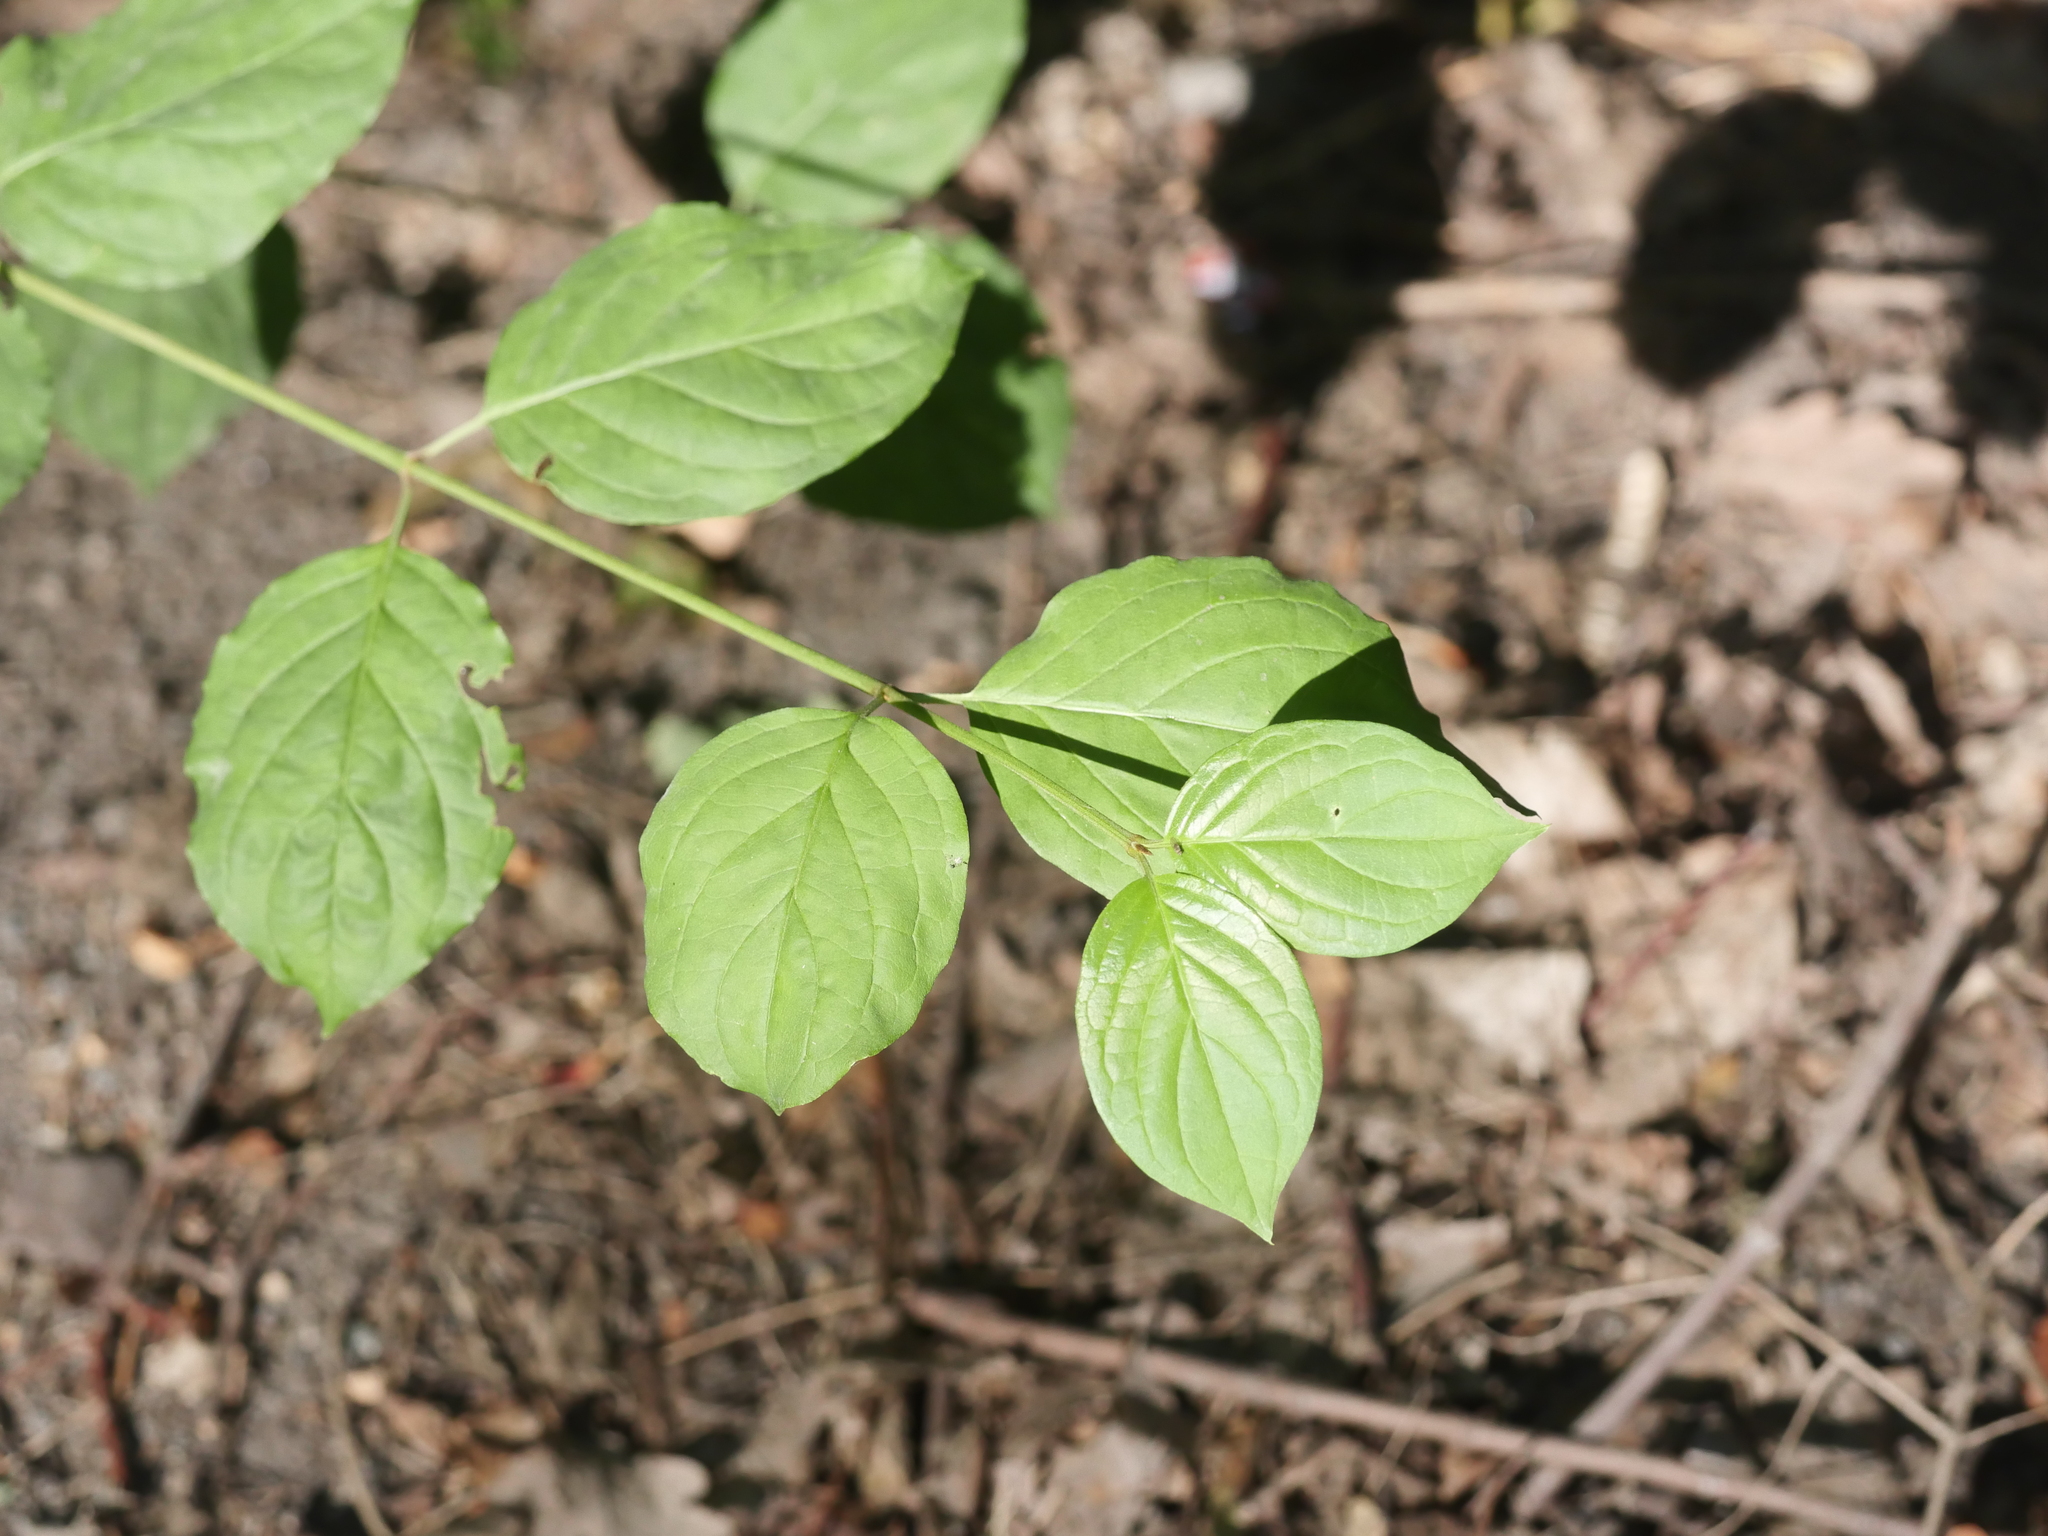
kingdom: Plantae
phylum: Tracheophyta
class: Magnoliopsida
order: Cornales
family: Cornaceae
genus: Cornus
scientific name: Cornus sanguinea
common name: Dogwood
